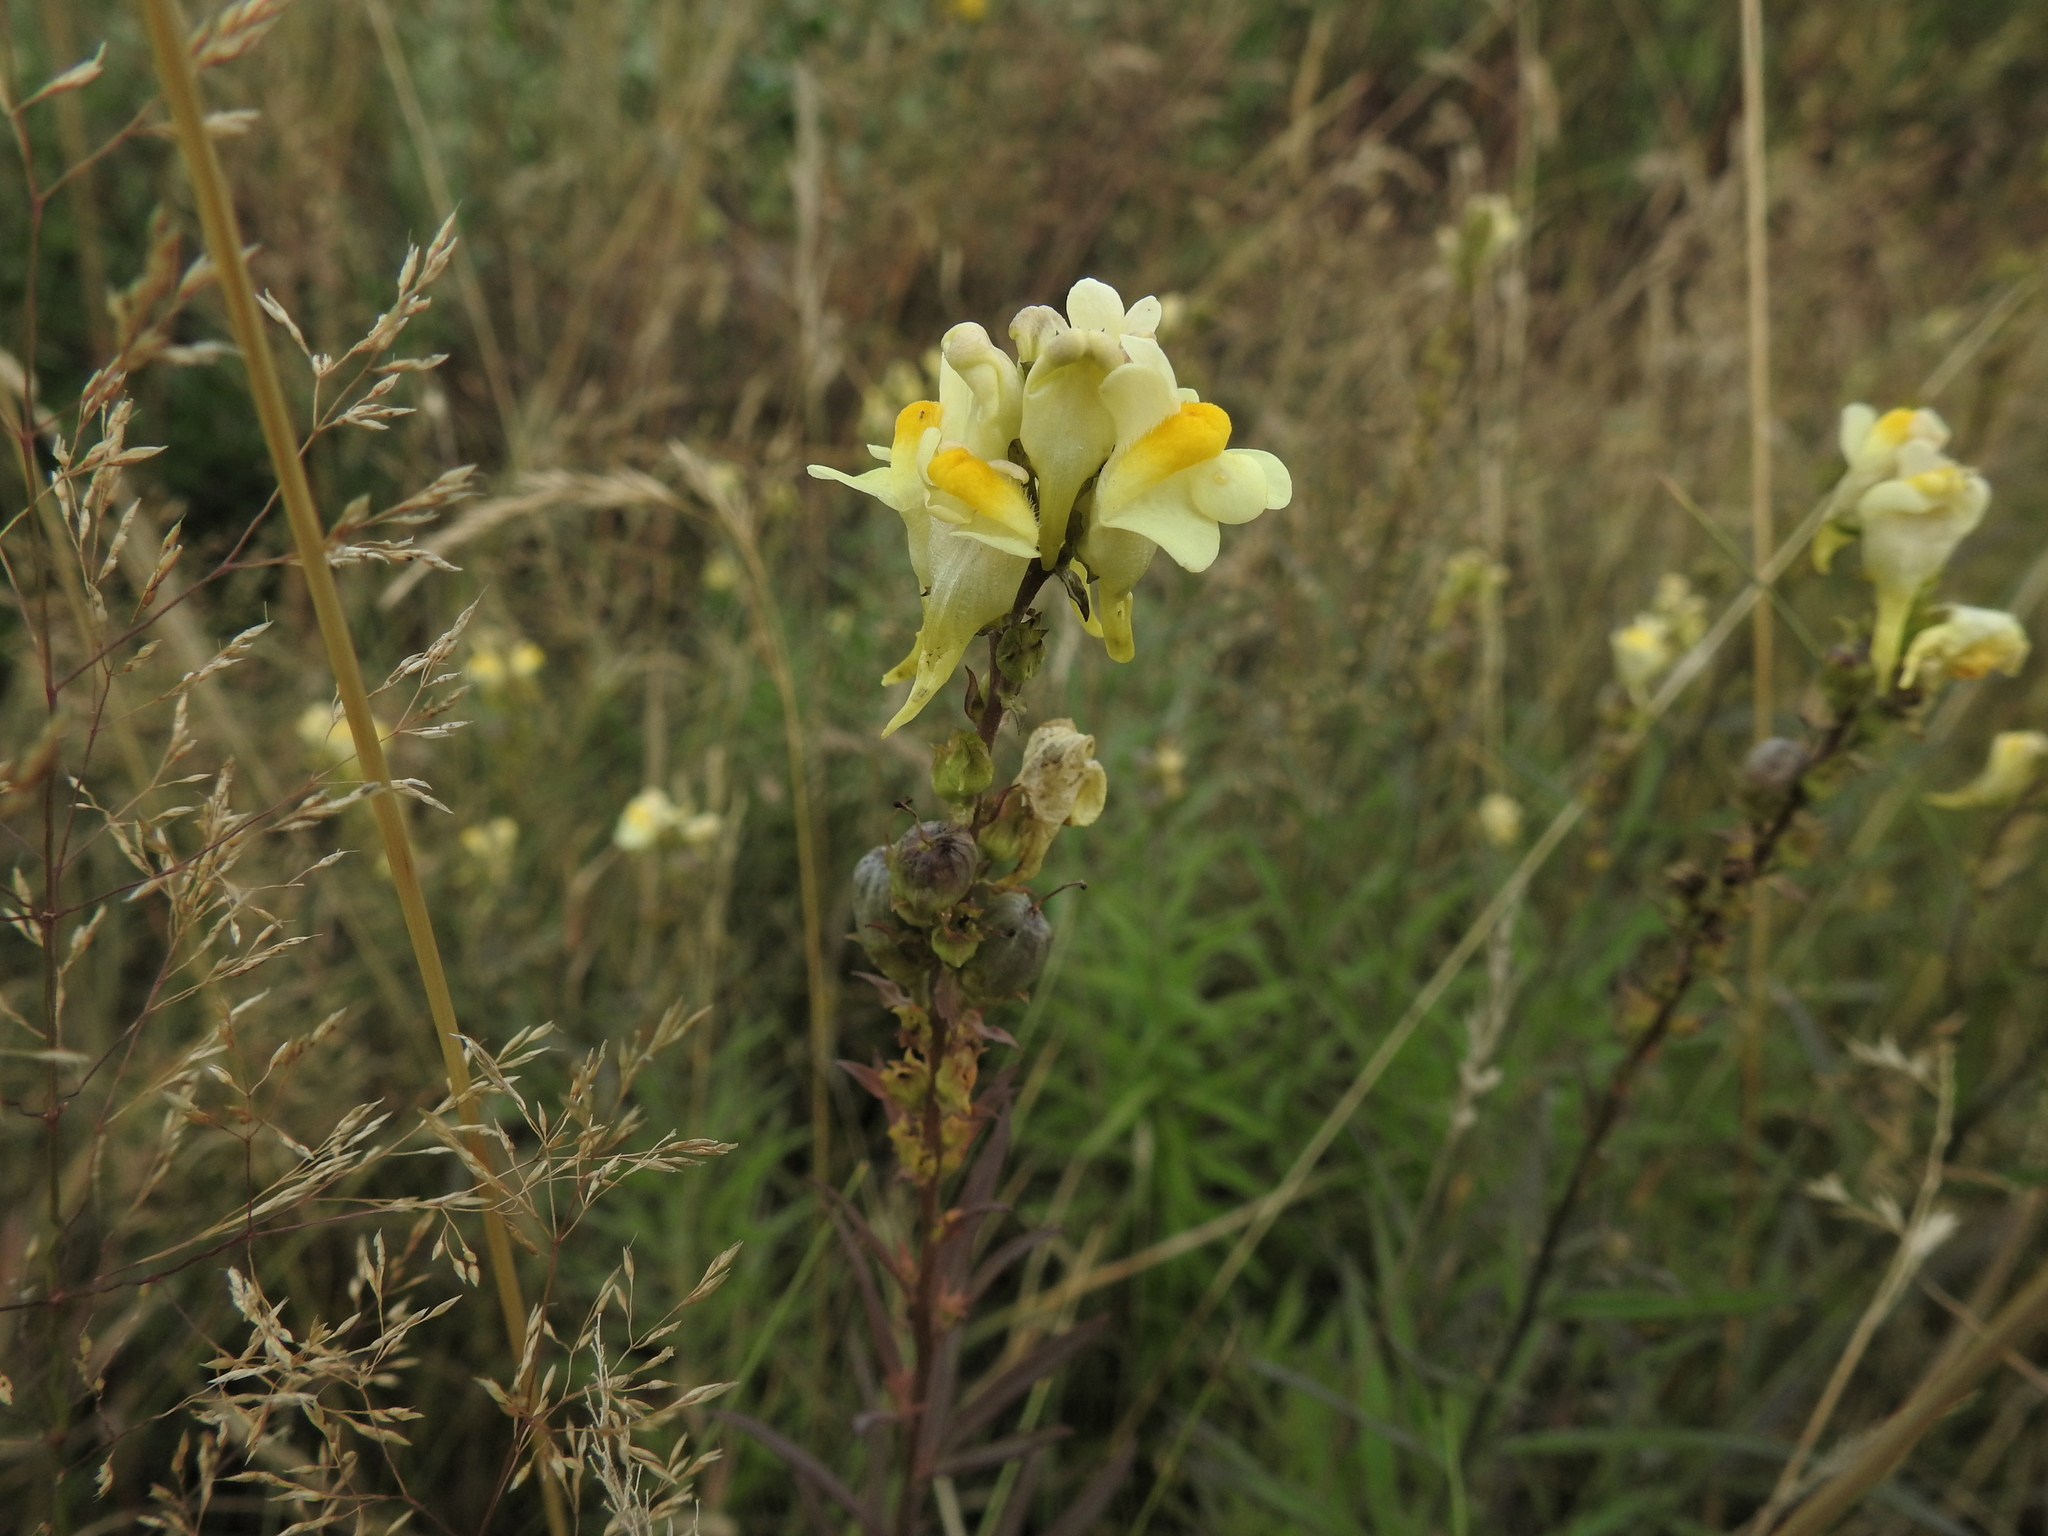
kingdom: Plantae
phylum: Tracheophyta
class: Magnoliopsida
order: Lamiales
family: Plantaginaceae
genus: Linaria
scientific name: Linaria vulgaris
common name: Butter and eggs
